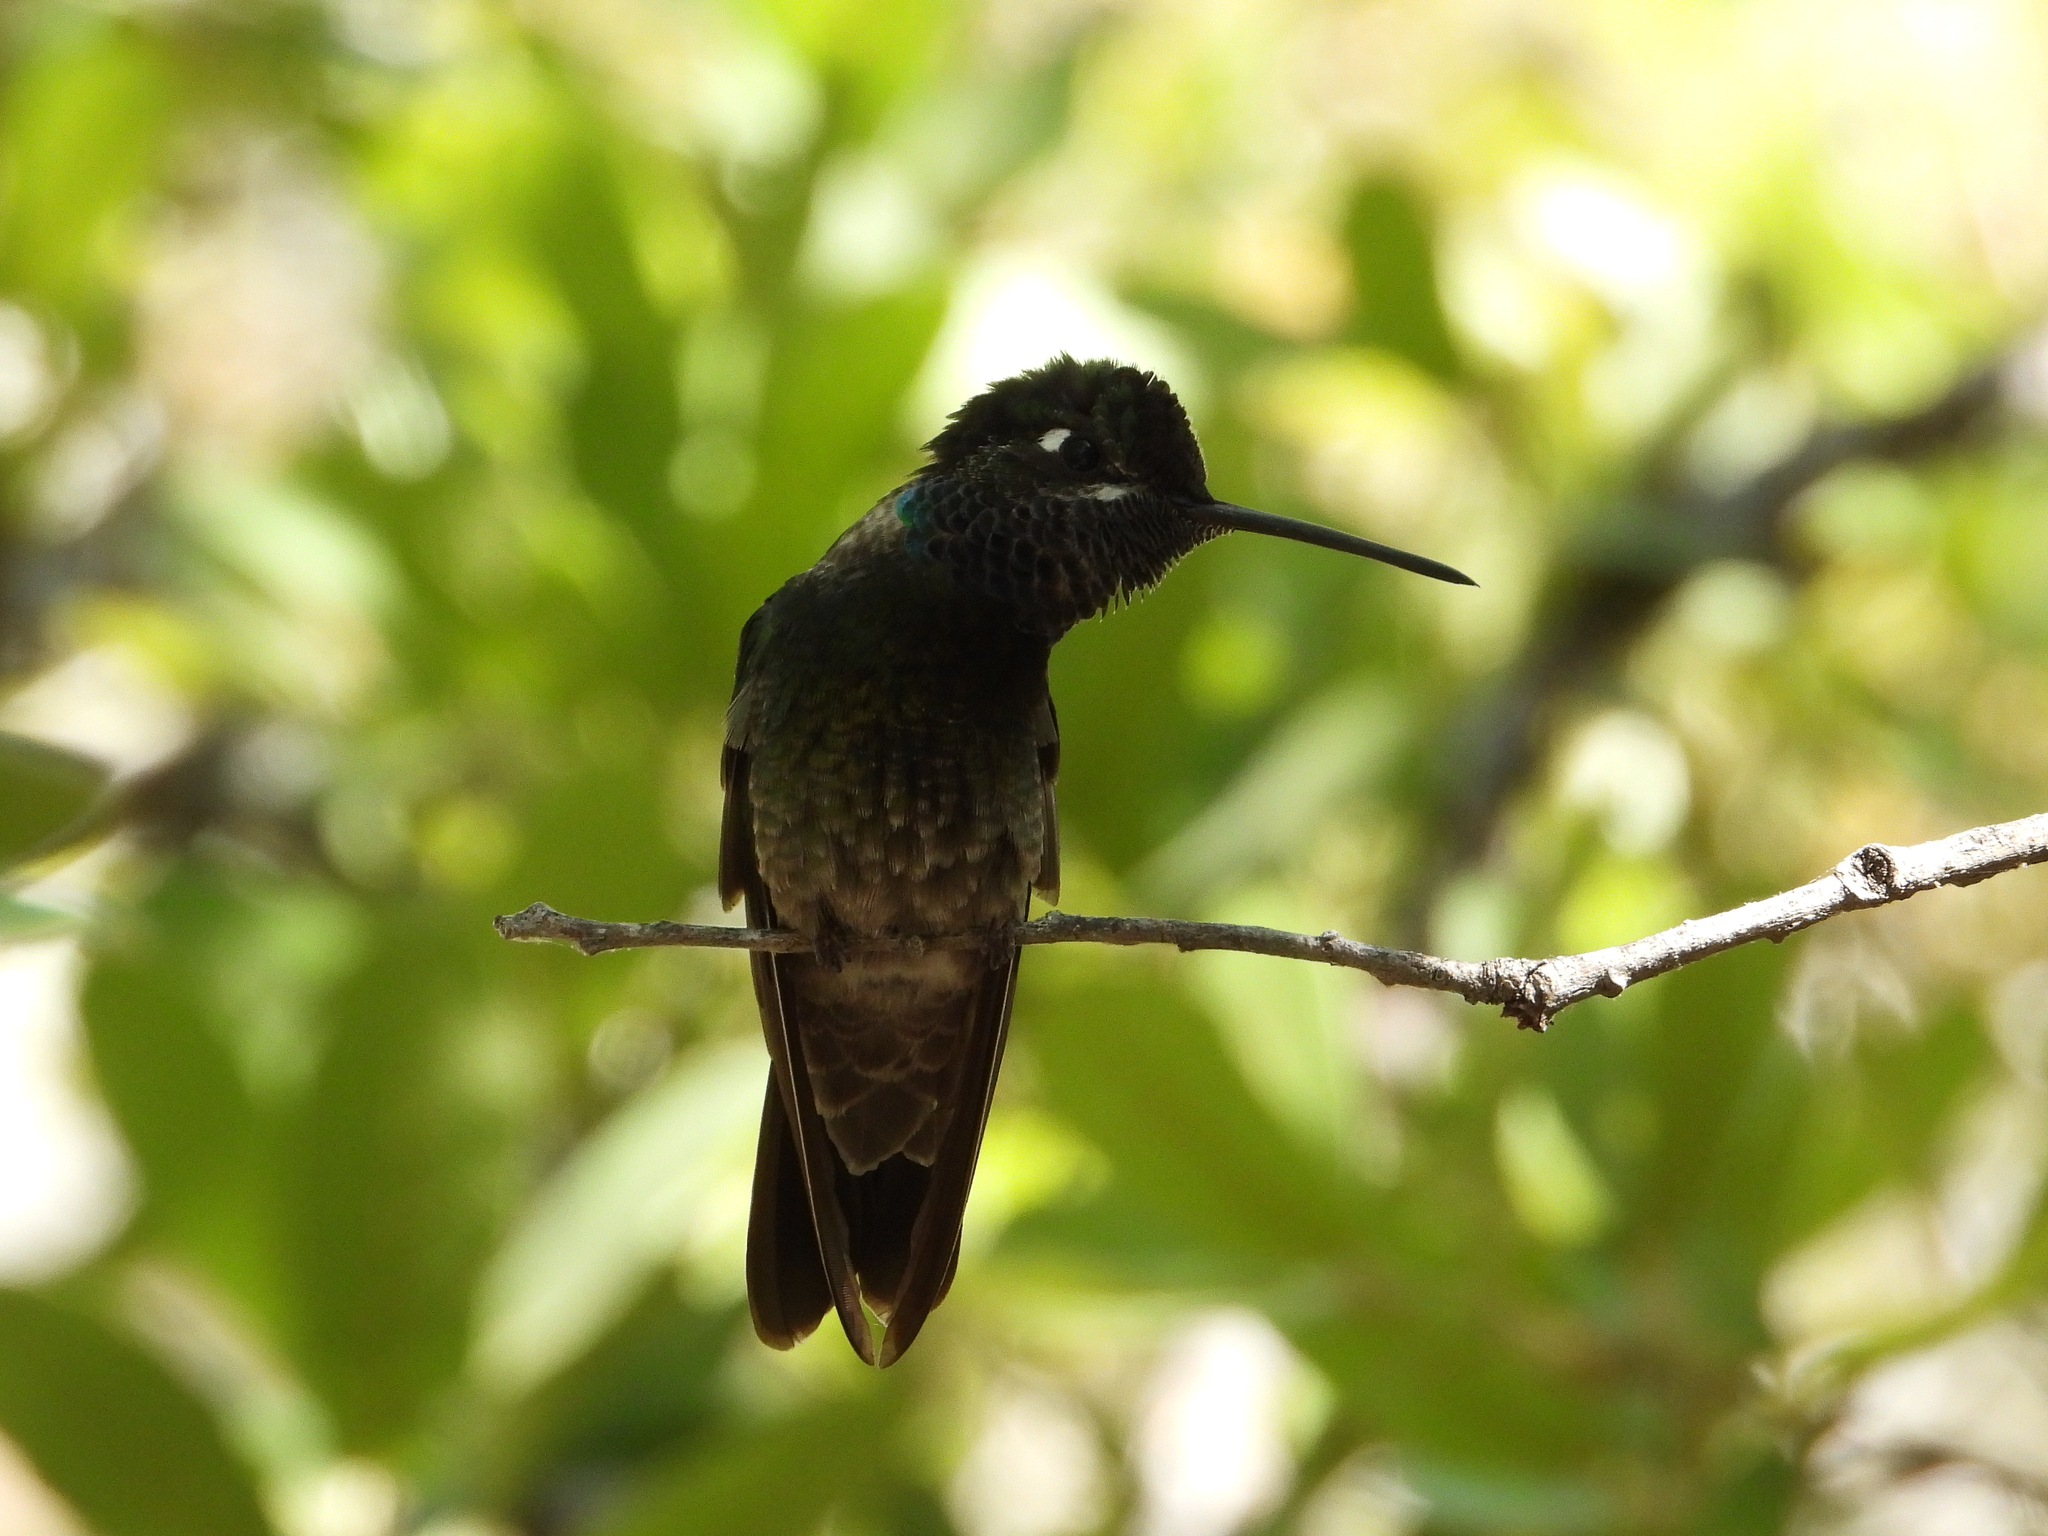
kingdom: Animalia
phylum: Chordata
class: Aves
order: Apodiformes
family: Trochilidae
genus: Eugenes
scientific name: Eugenes fulgens
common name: Magnificent hummingbird
